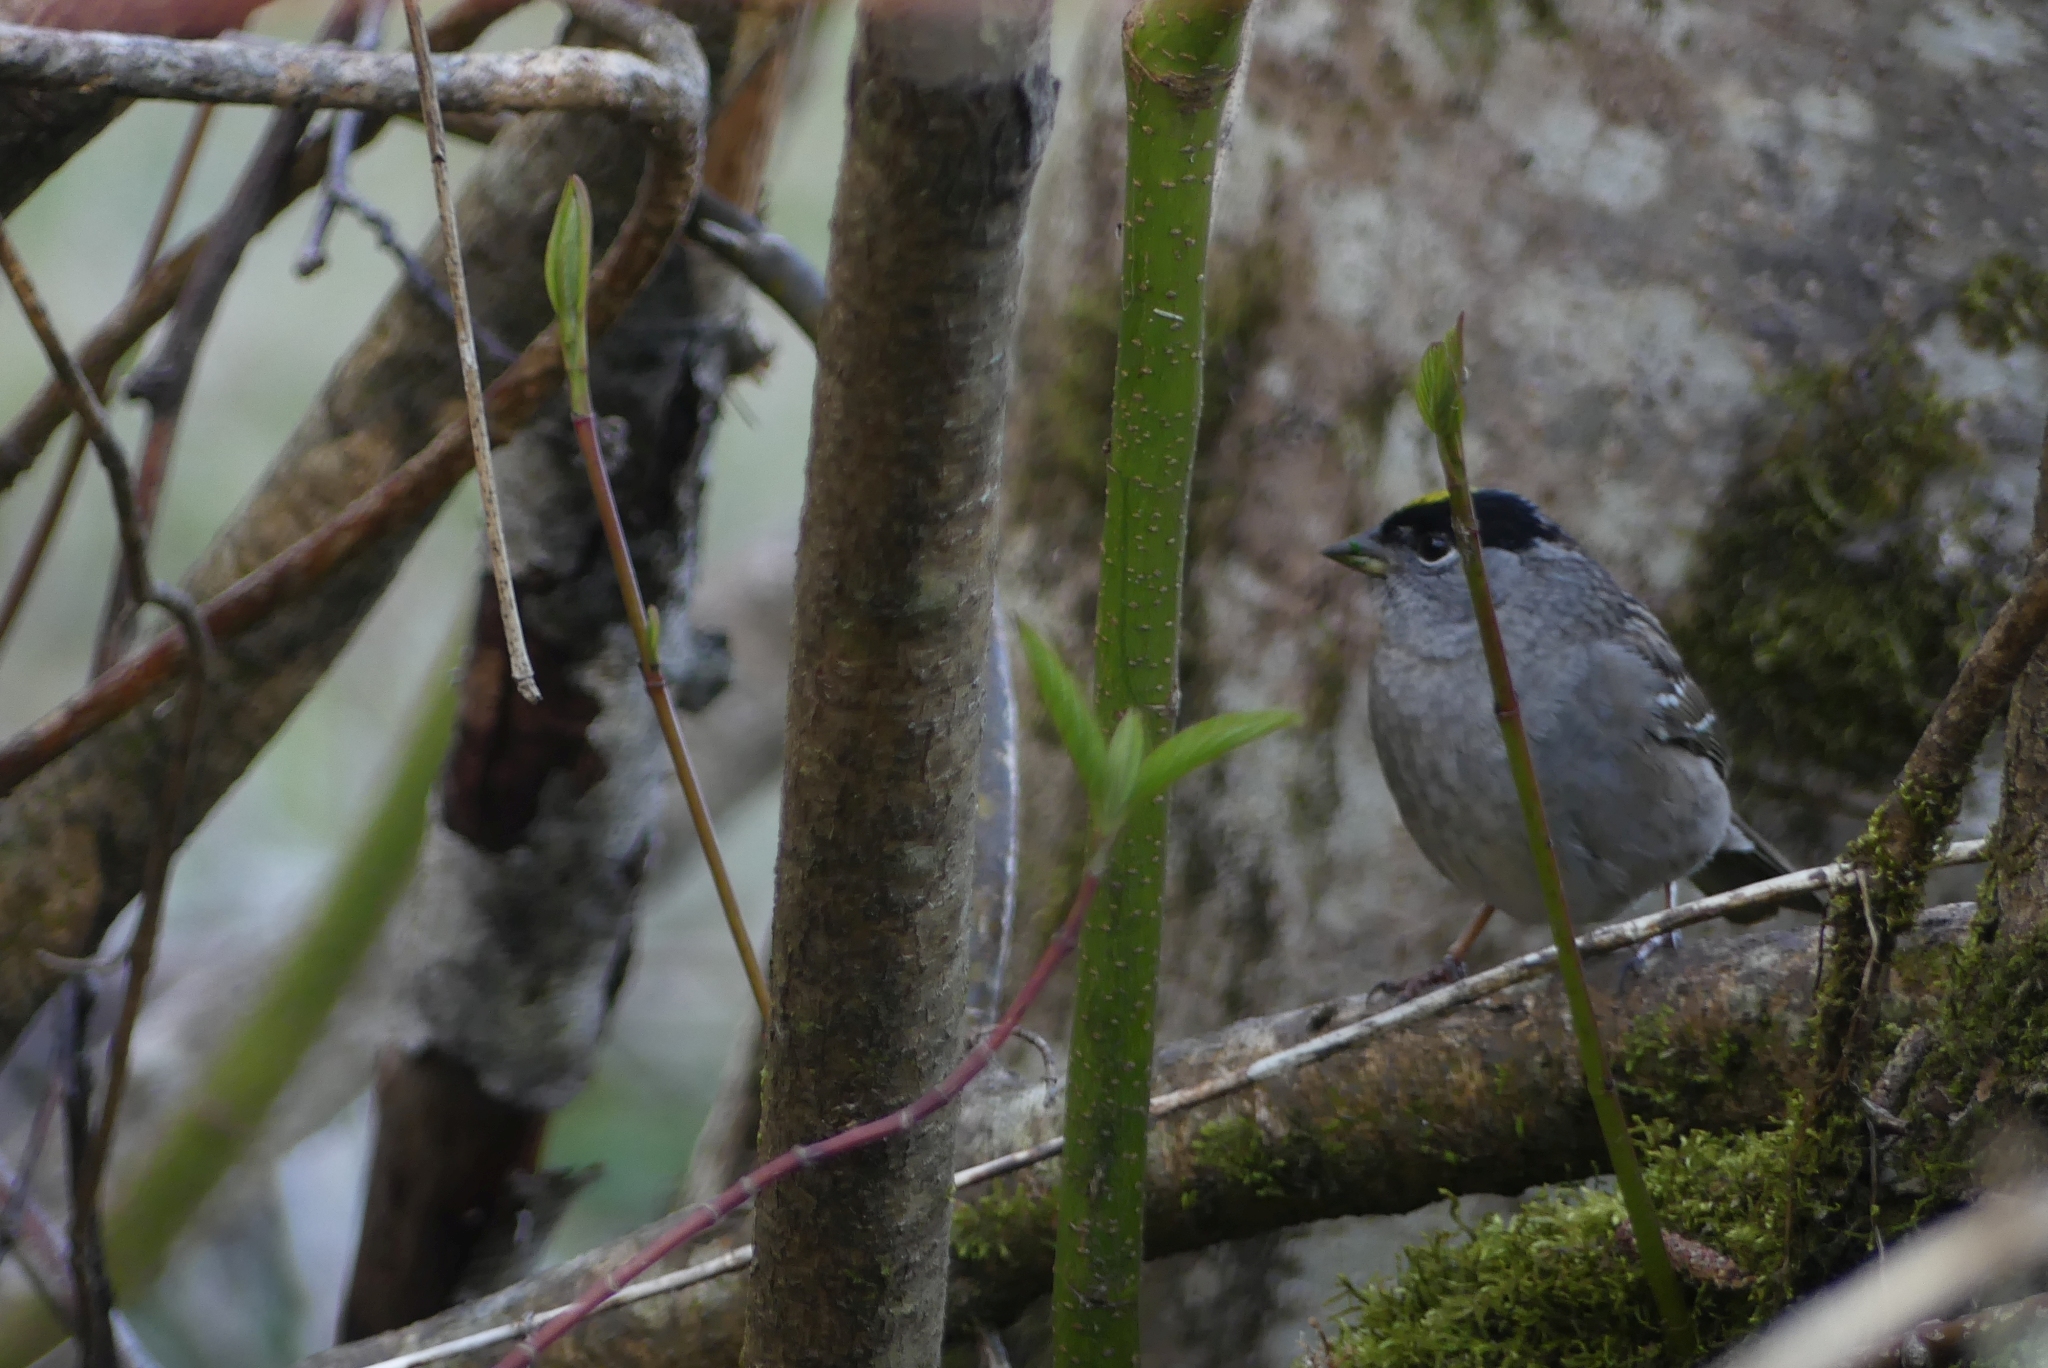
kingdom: Animalia
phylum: Chordata
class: Aves
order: Passeriformes
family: Passerellidae
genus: Zonotrichia
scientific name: Zonotrichia atricapilla
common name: Golden-crowned sparrow
